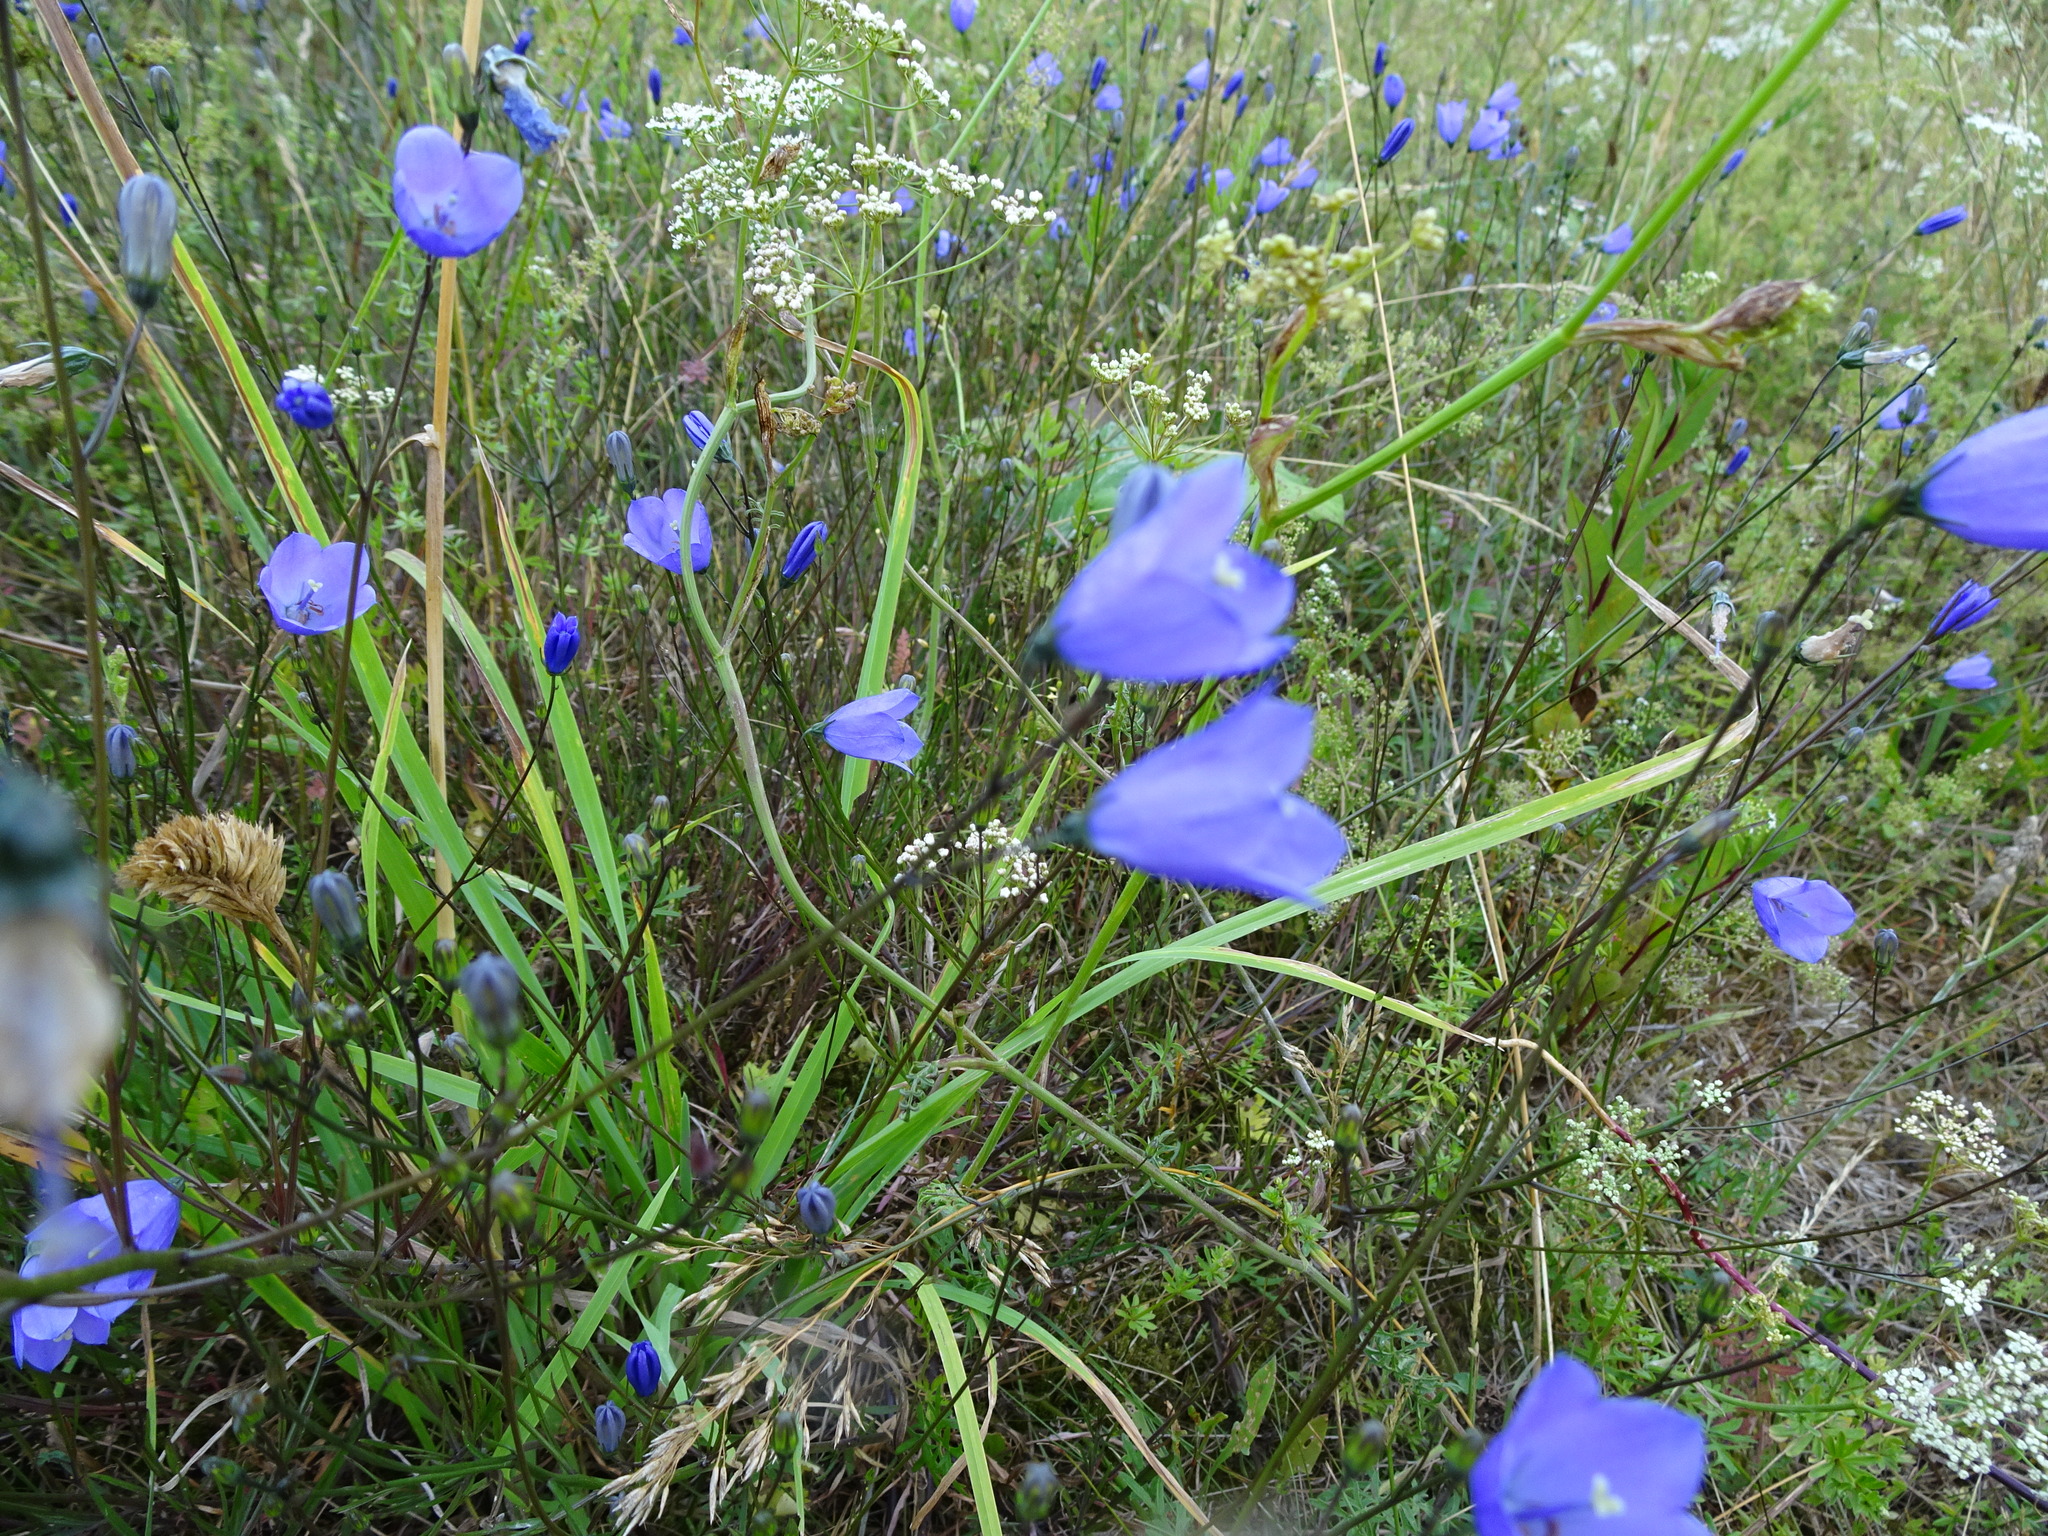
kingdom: Plantae
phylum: Tracheophyta
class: Magnoliopsida
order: Asterales
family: Campanulaceae
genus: Campanula
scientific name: Campanula rotundifolia
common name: Harebell
